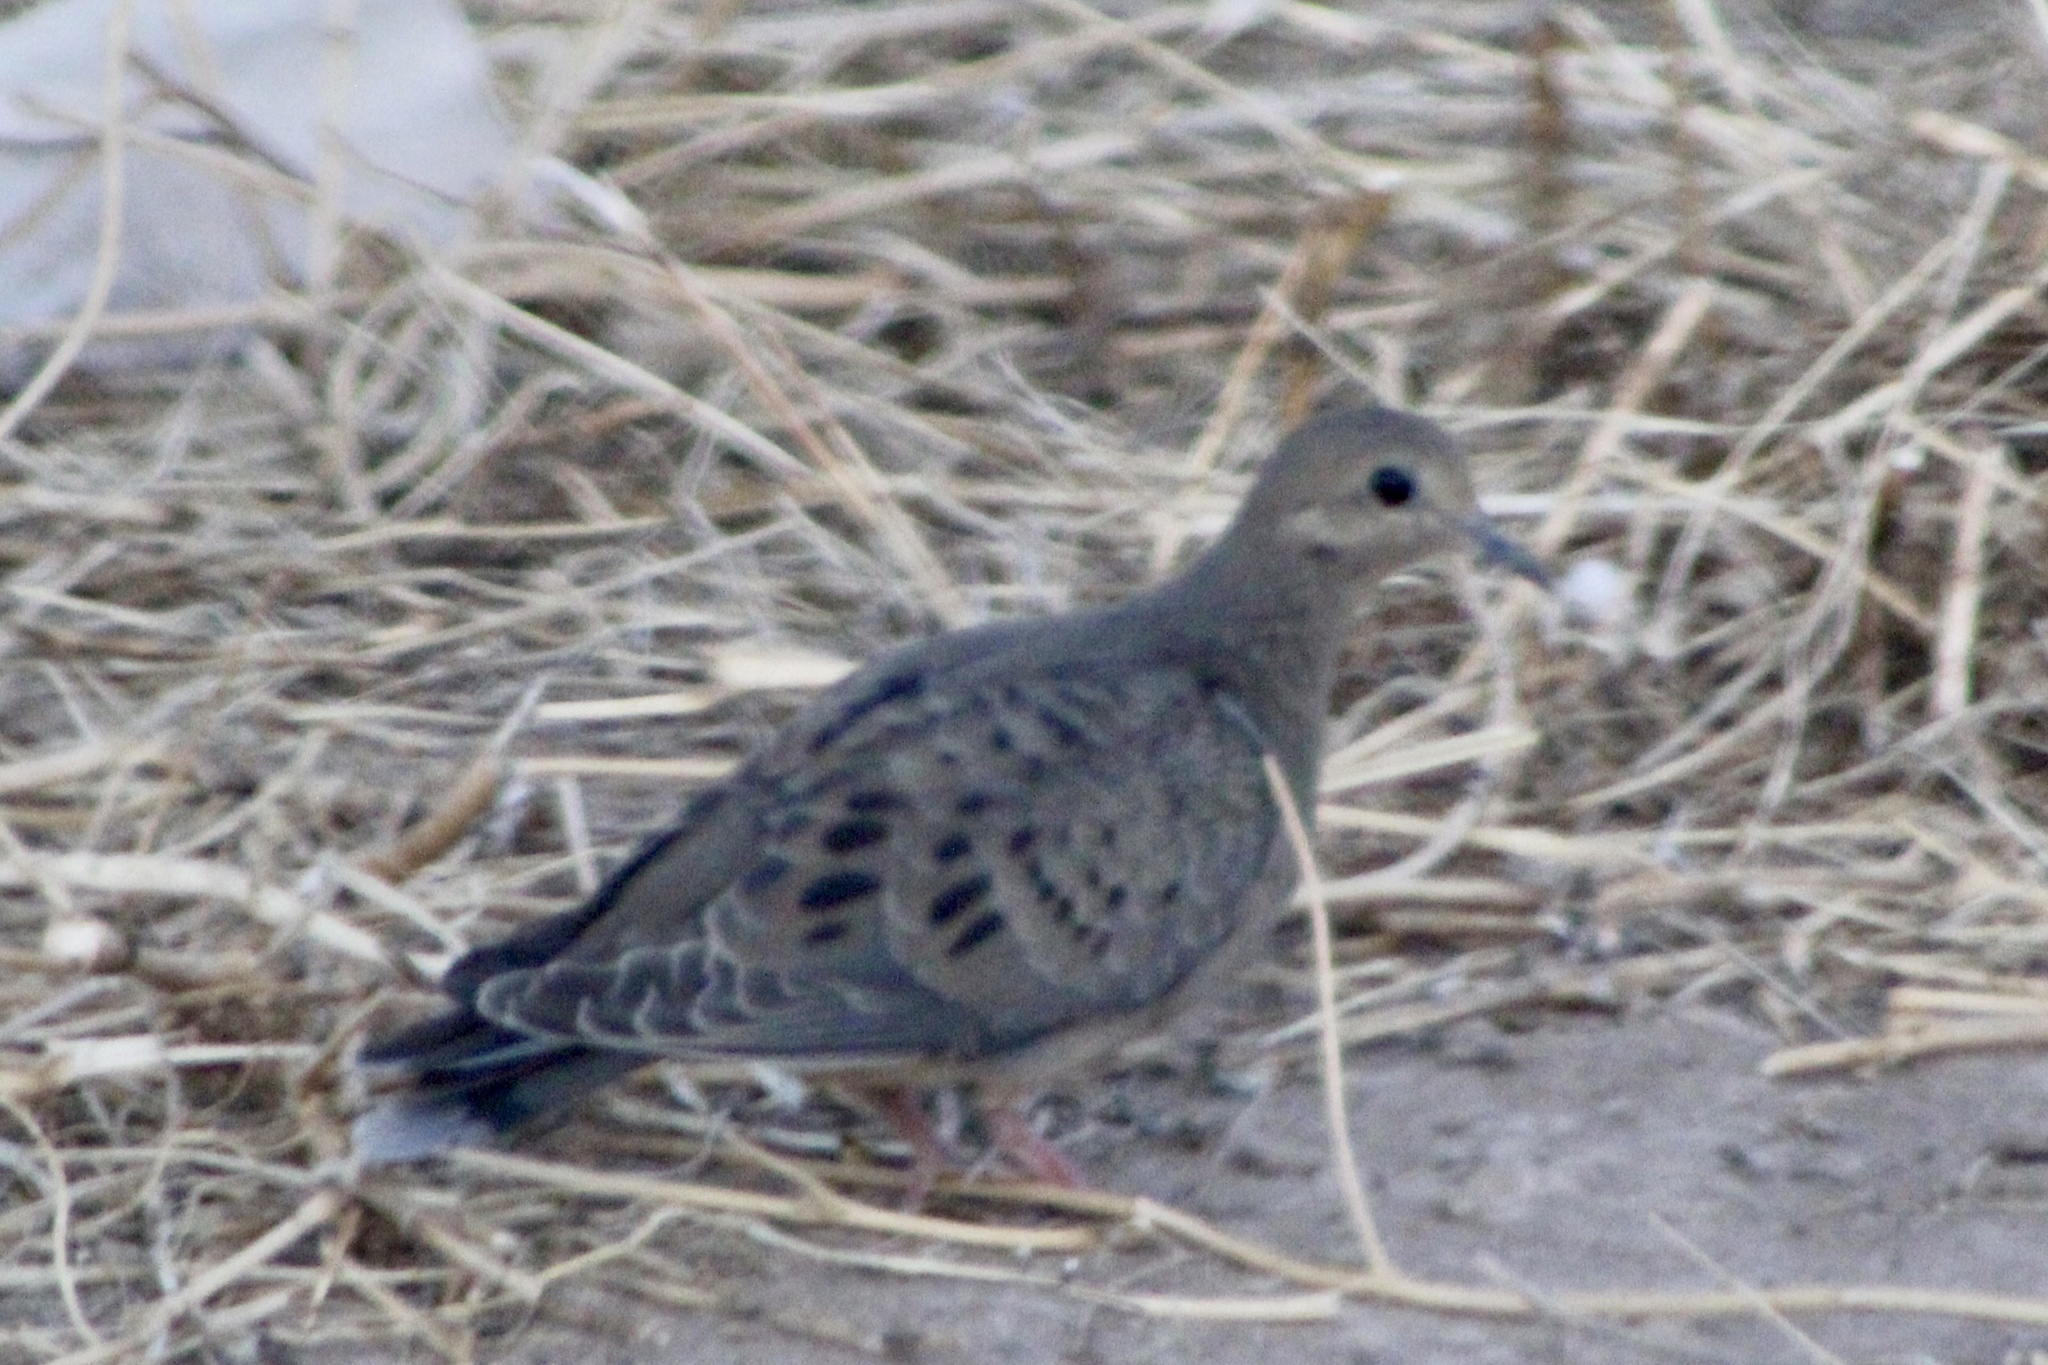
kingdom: Animalia
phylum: Chordata
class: Aves
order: Columbiformes
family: Columbidae
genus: Zenaida
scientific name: Zenaida macroura
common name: Mourning dove
